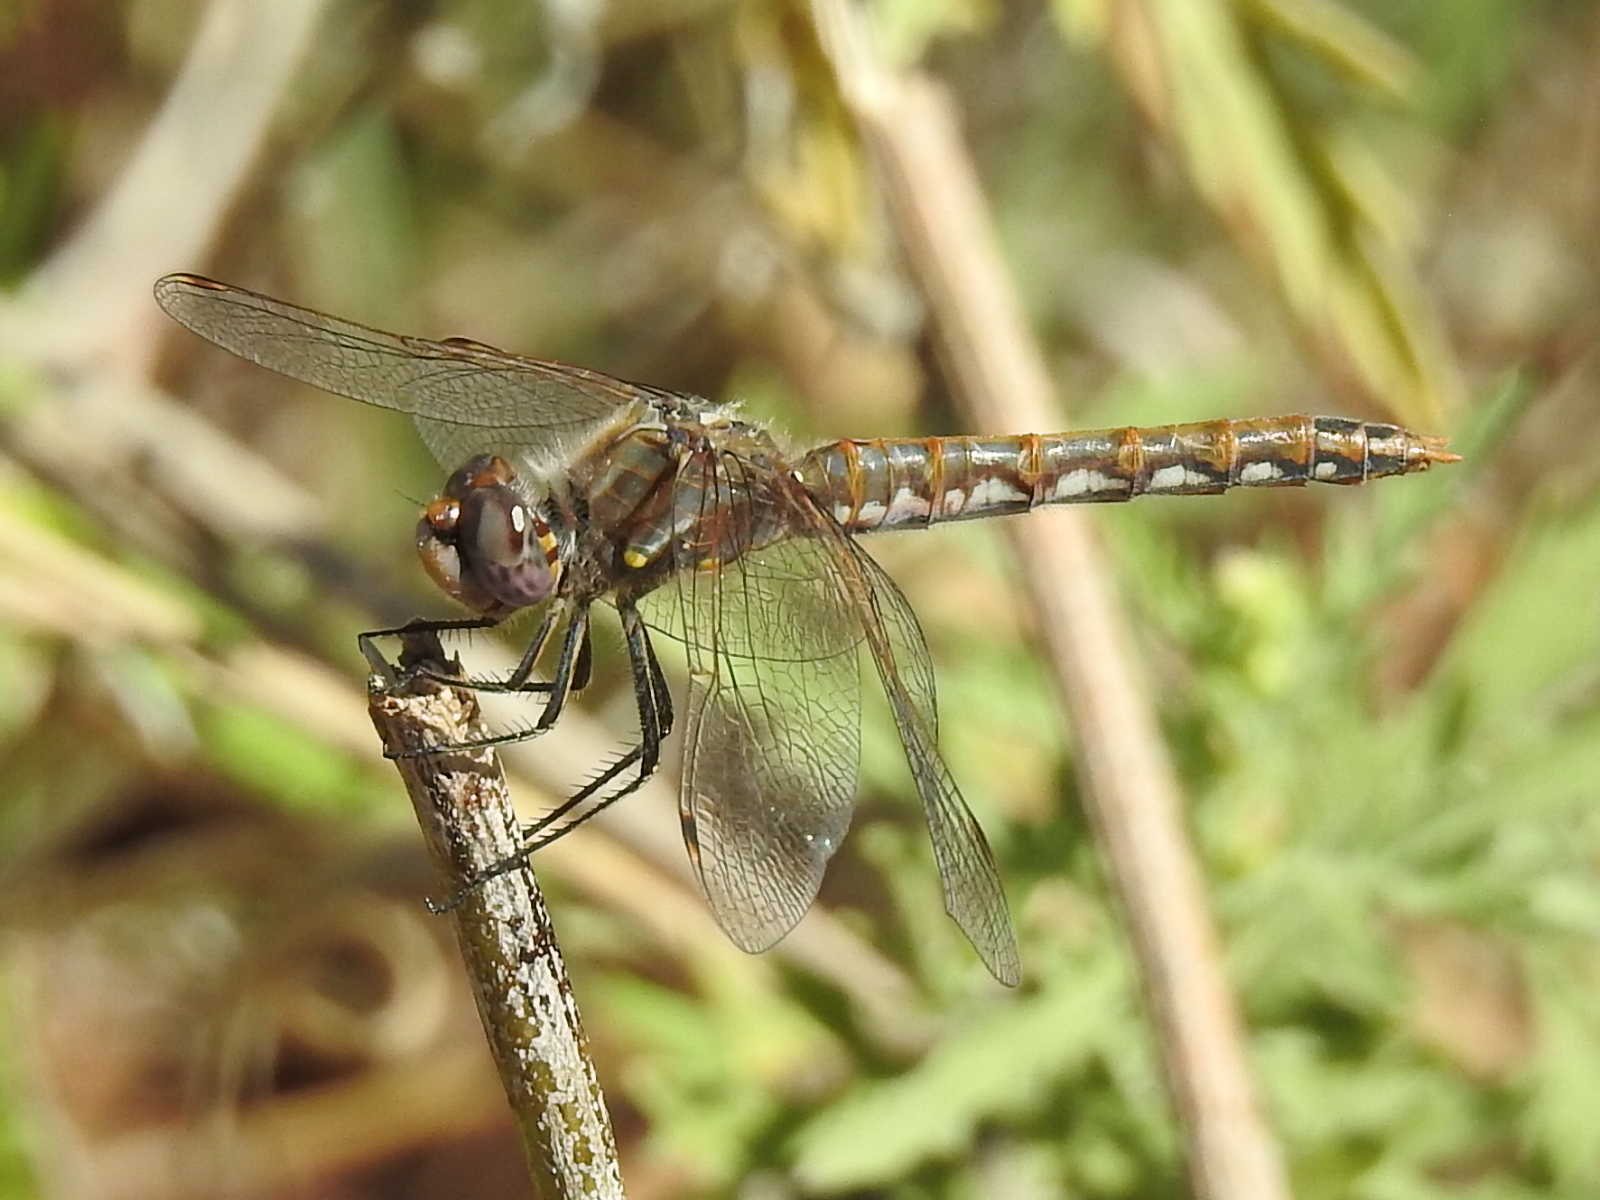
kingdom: Animalia
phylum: Arthropoda
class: Insecta
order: Odonata
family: Libellulidae
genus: Sympetrum
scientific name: Sympetrum corruptum
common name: Variegated meadowhawk
